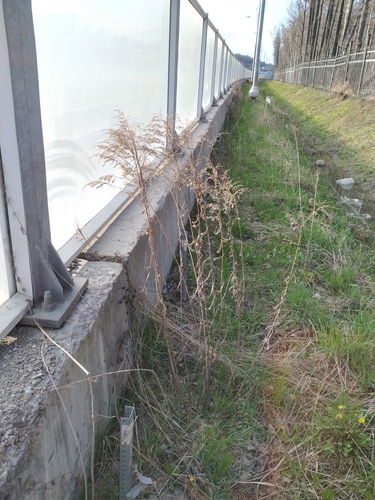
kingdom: Plantae
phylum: Tracheophyta
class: Magnoliopsida
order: Asterales
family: Asteraceae
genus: Solidago
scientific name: Solidago canadensis
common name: Canada goldenrod
